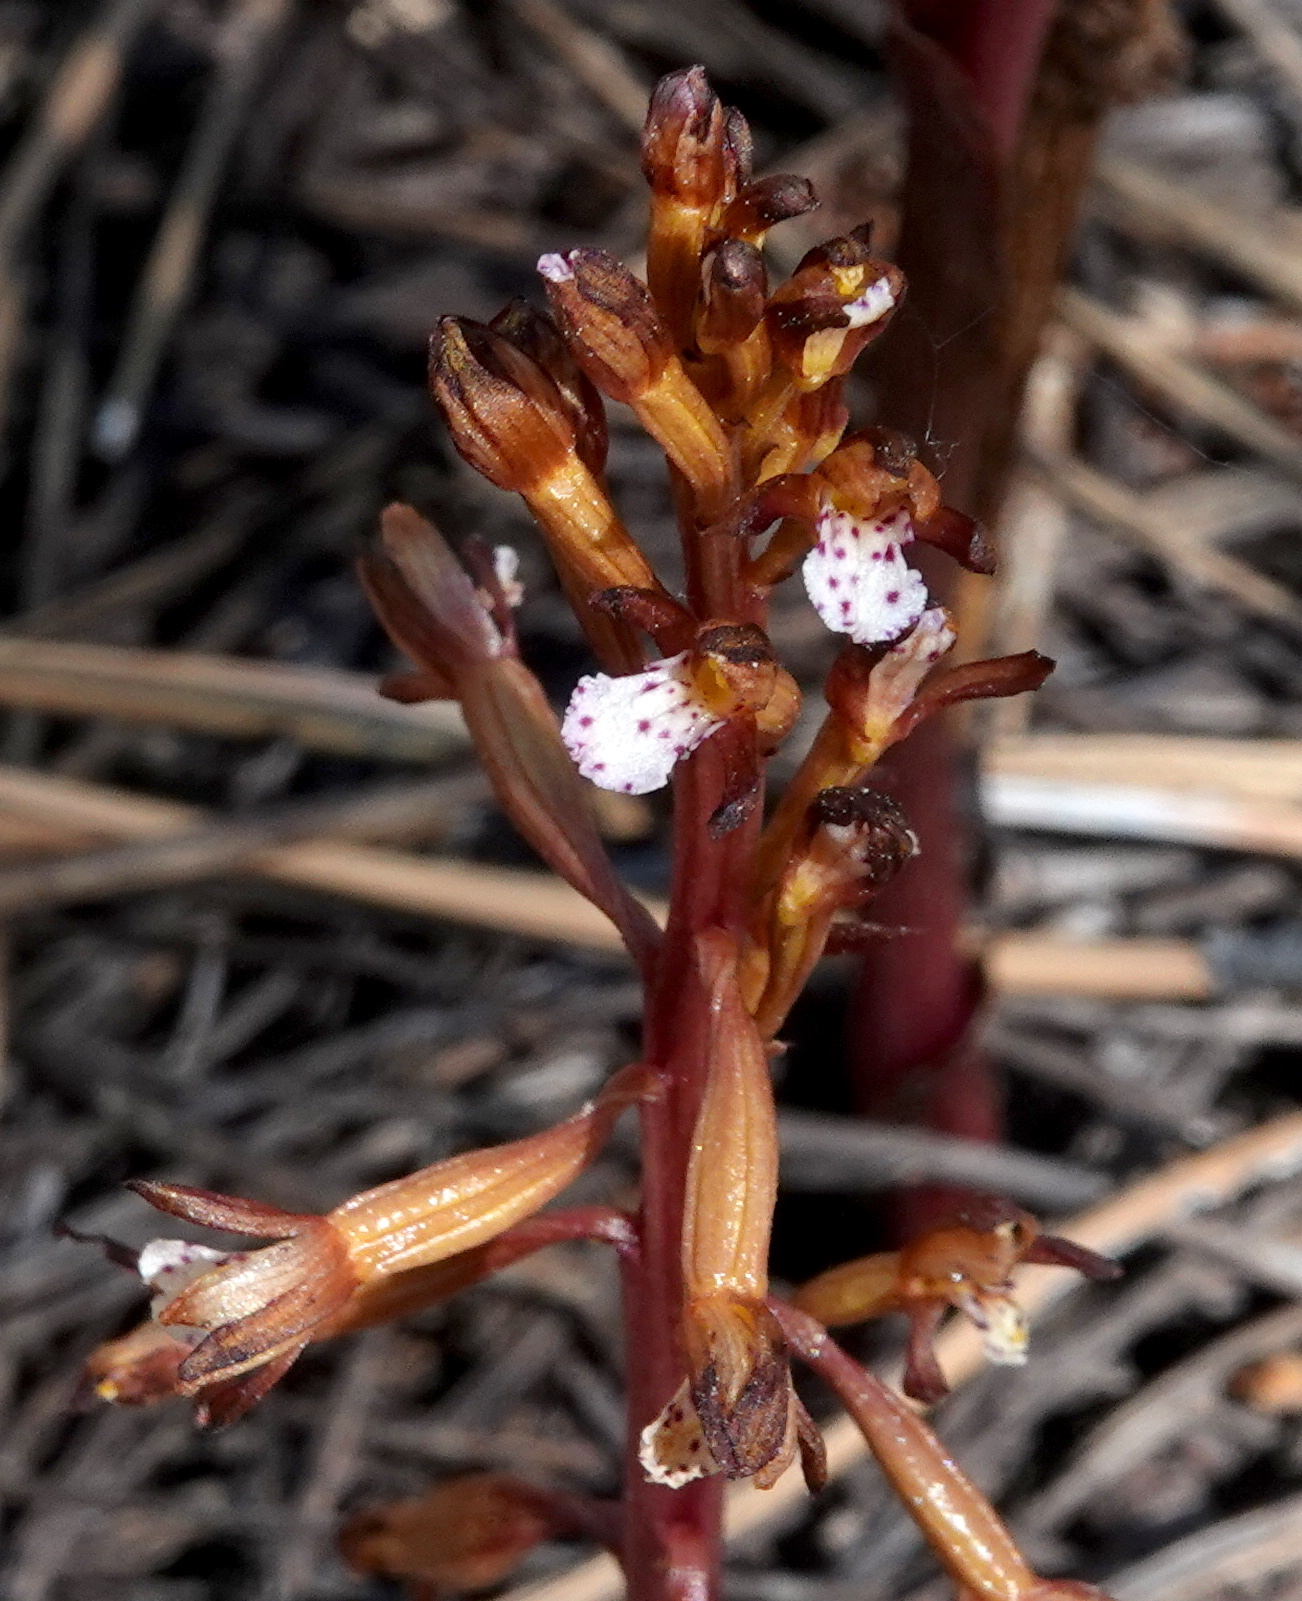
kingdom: Plantae
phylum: Tracheophyta
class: Liliopsida
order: Asparagales
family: Orchidaceae
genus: Corallorhiza
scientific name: Corallorhiza maculata
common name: Spotted coralroot
